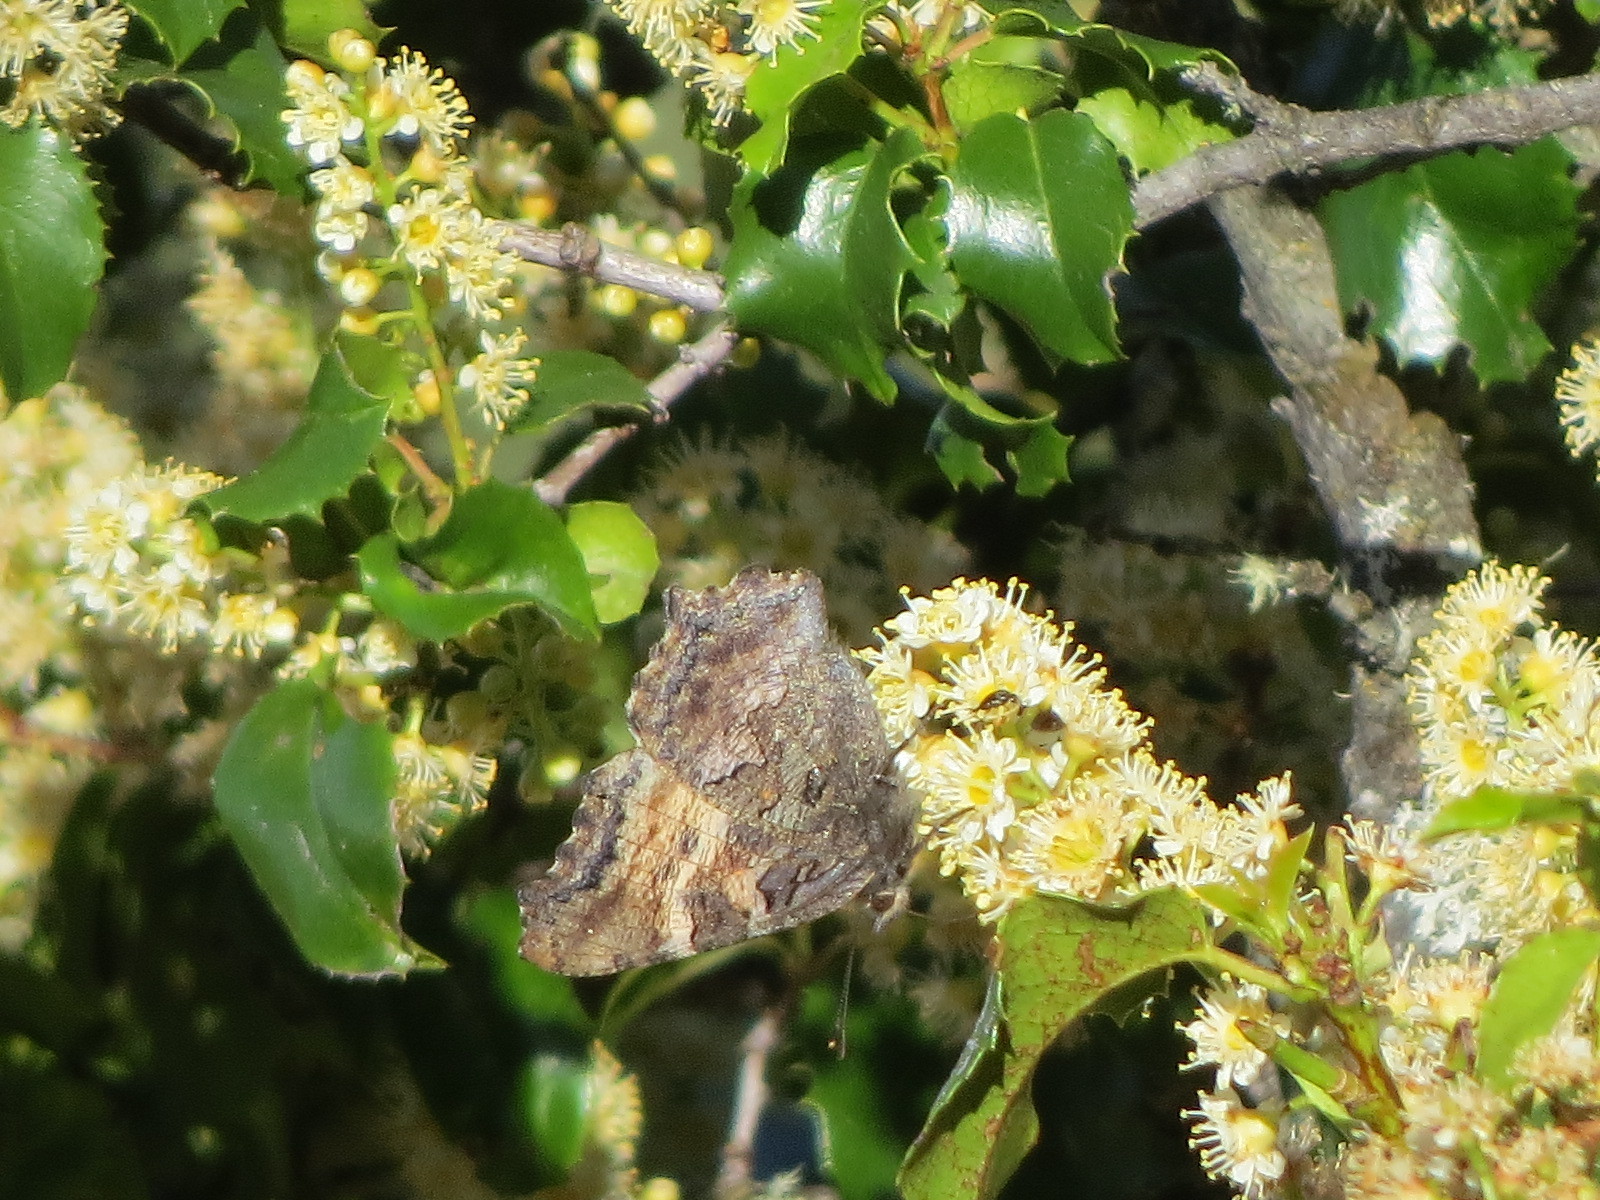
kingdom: Animalia
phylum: Arthropoda
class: Insecta
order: Lepidoptera
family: Nymphalidae
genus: Nymphalis
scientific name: Nymphalis californica
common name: California tortoiseshell
